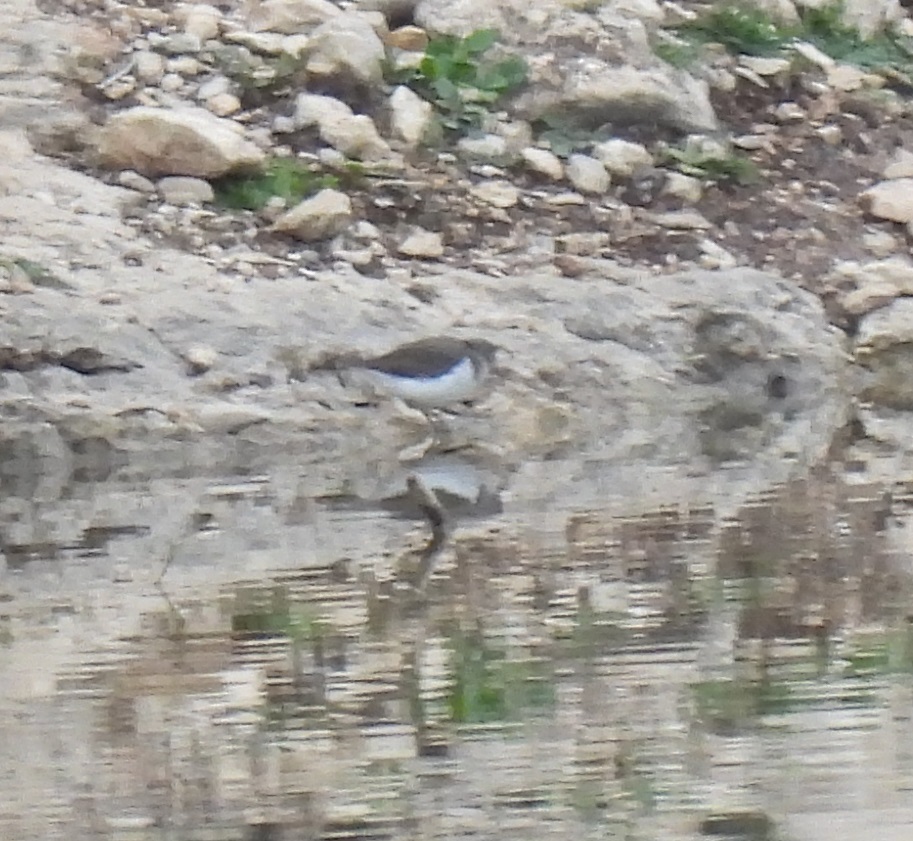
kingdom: Animalia
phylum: Chordata
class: Aves
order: Charadriiformes
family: Scolopacidae
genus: Actitis
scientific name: Actitis macularius
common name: Spotted sandpiper
